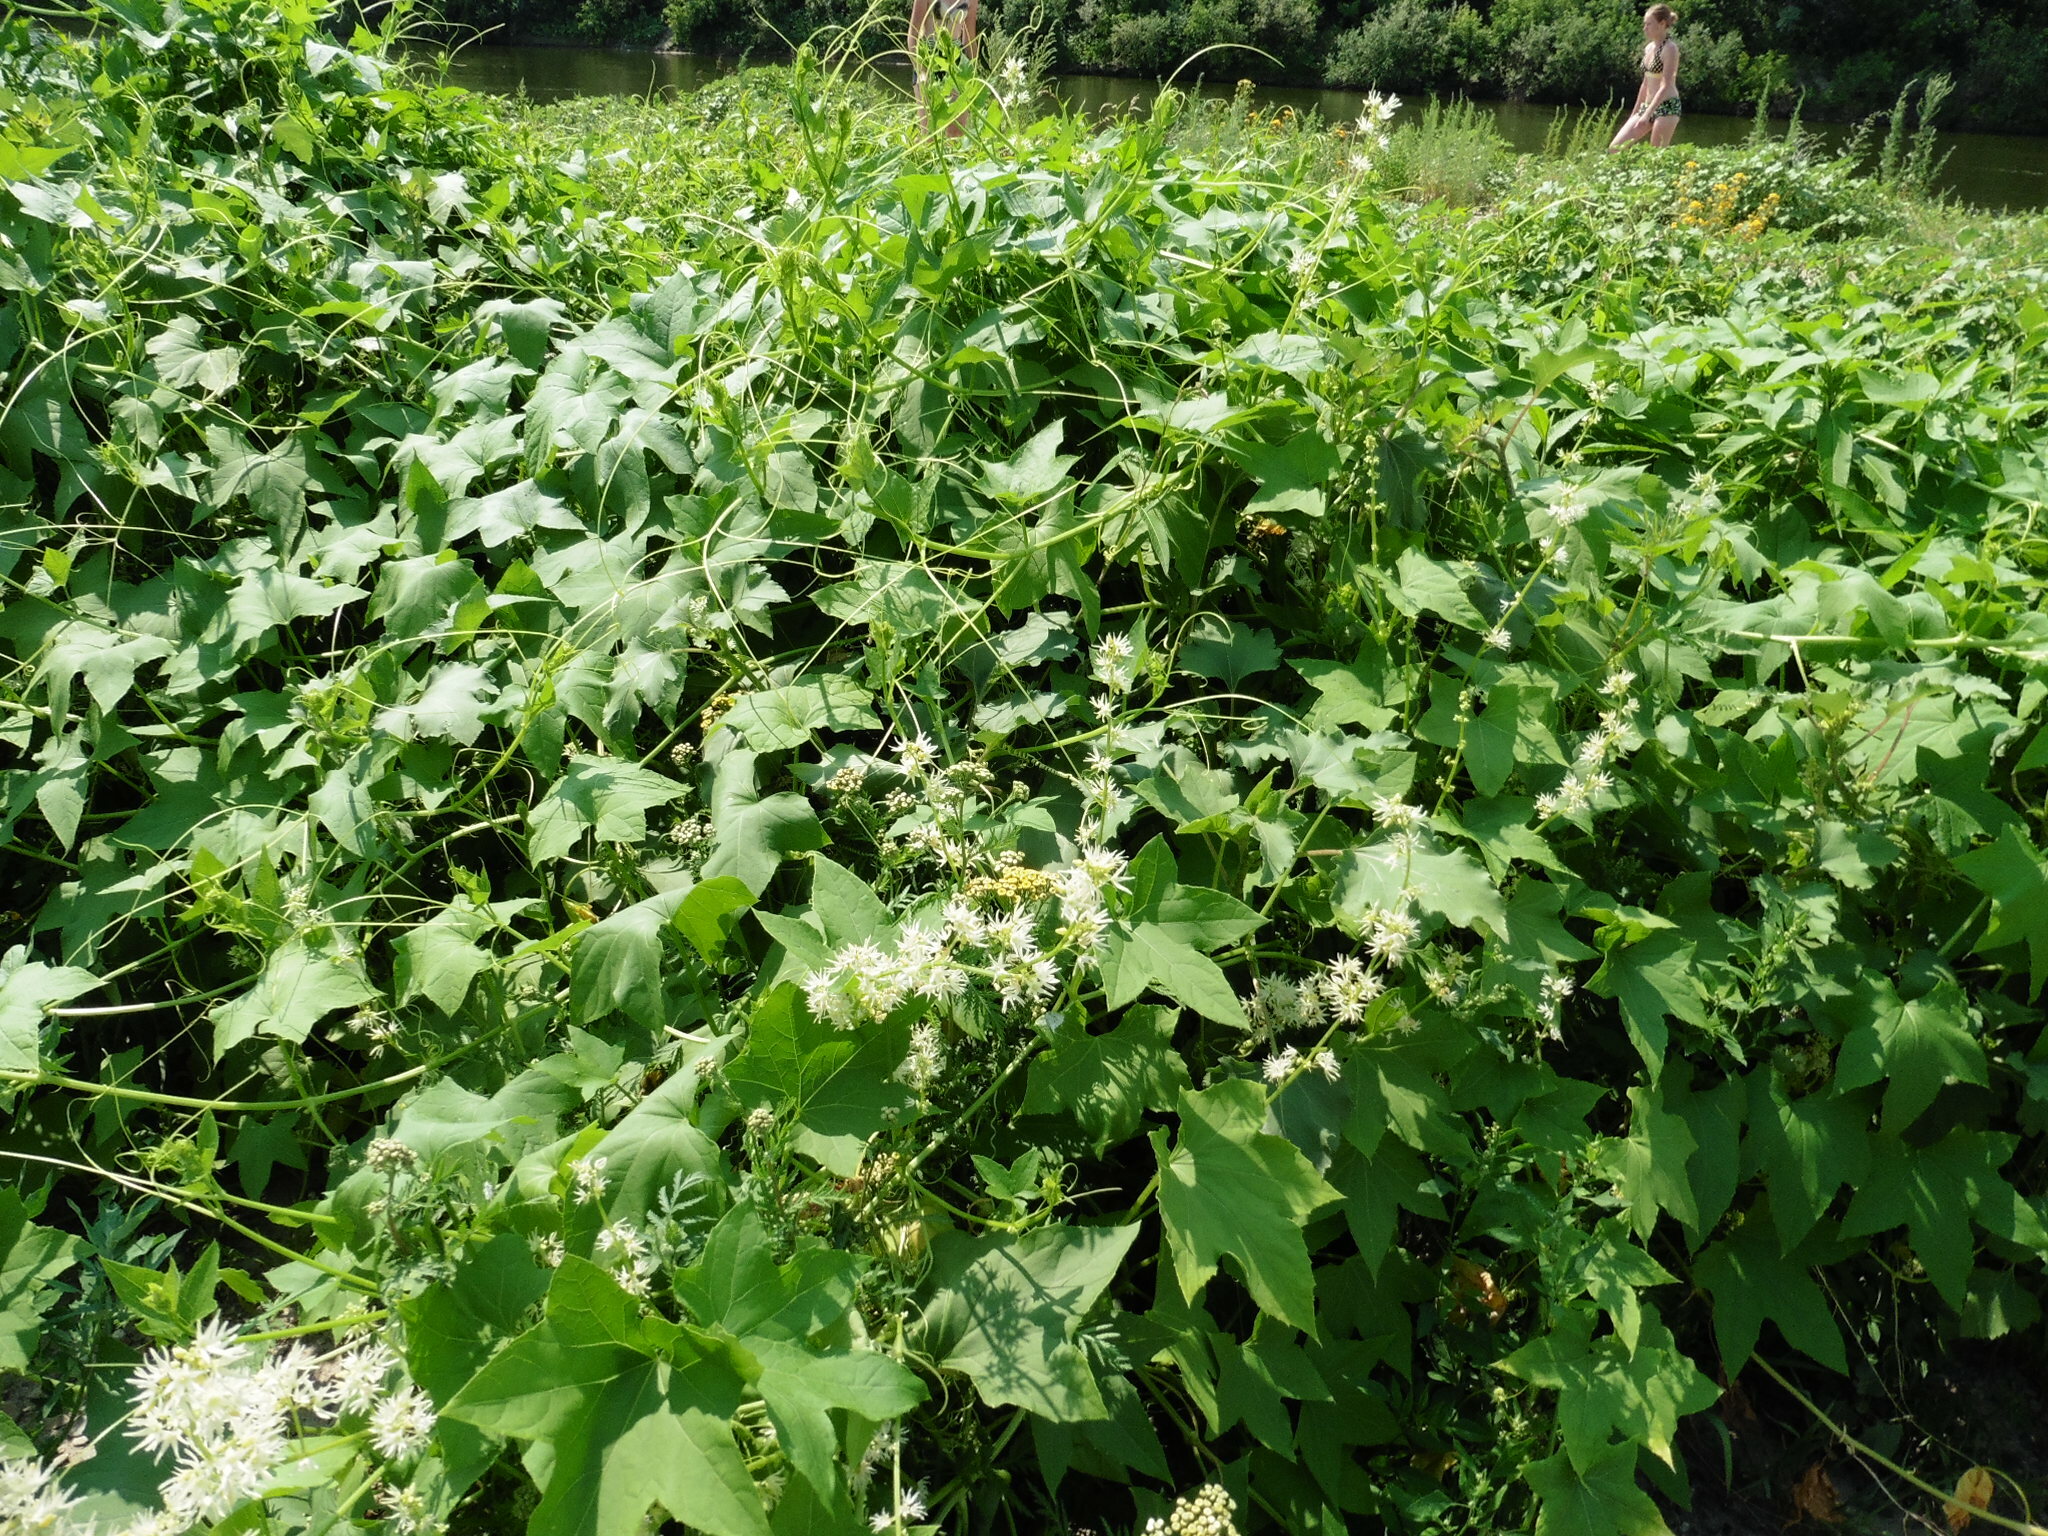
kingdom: Plantae
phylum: Tracheophyta
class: Magnoliopsida
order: Cucurbitales
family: Cucurbitaceae
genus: Echinocystis
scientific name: Echinocystis lobata
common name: Wild cucumber
